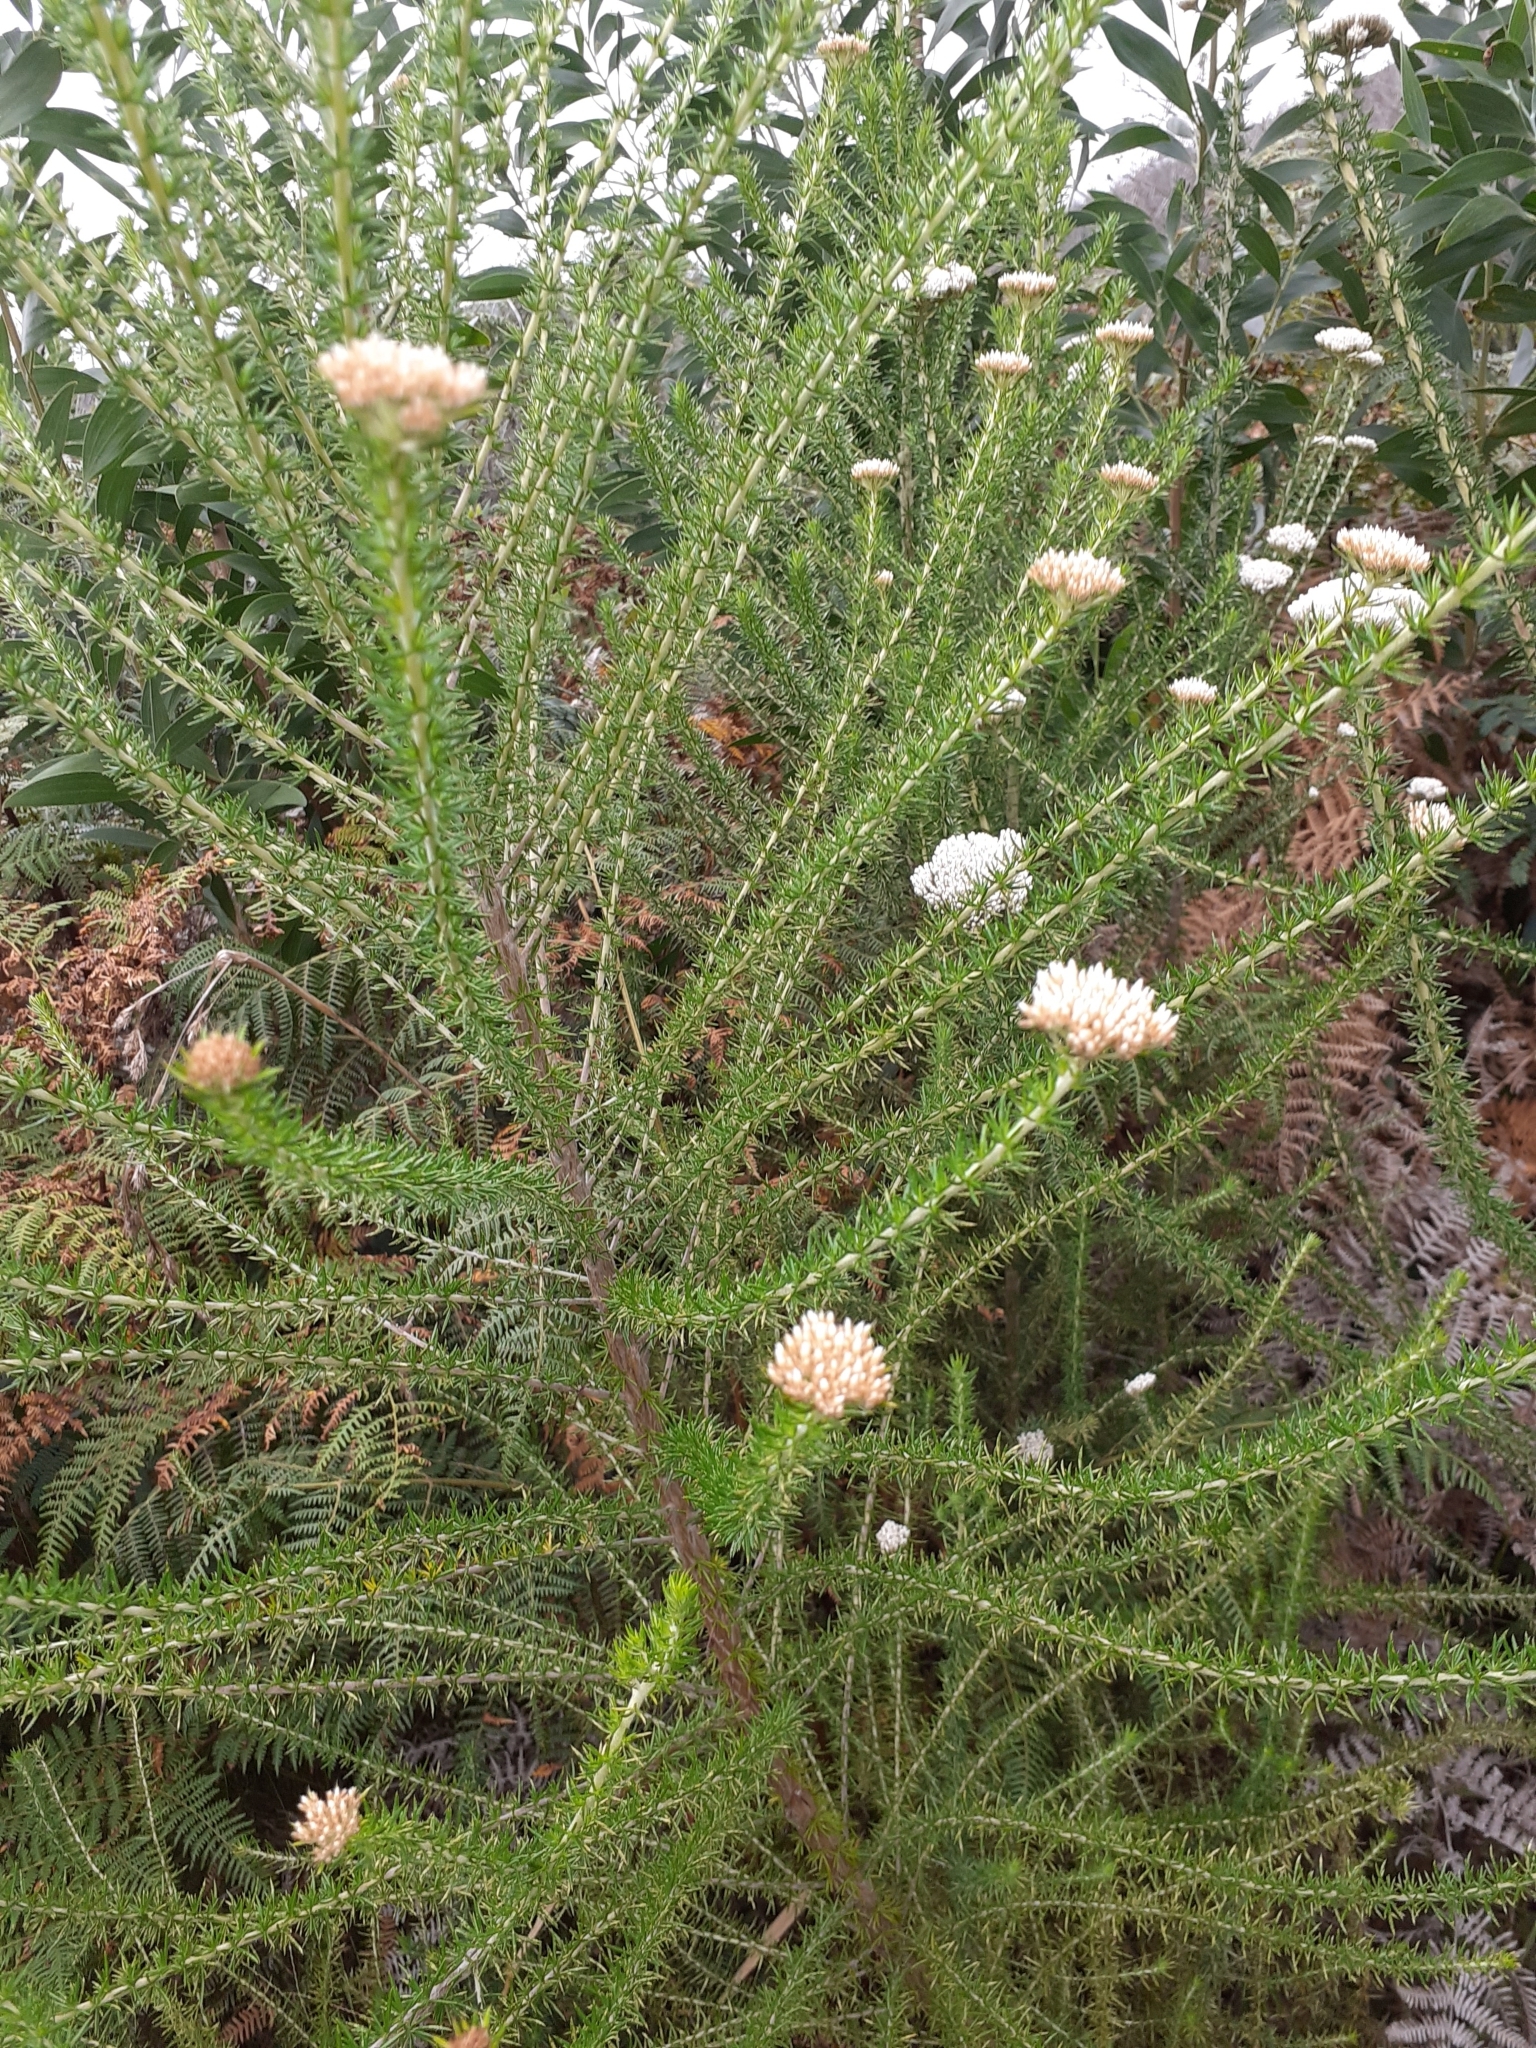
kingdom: Plantae
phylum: Tracheophyta
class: Magnoliopsida
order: Asterales
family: Asteraceae
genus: Metalasia
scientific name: Metalasia trivialis
